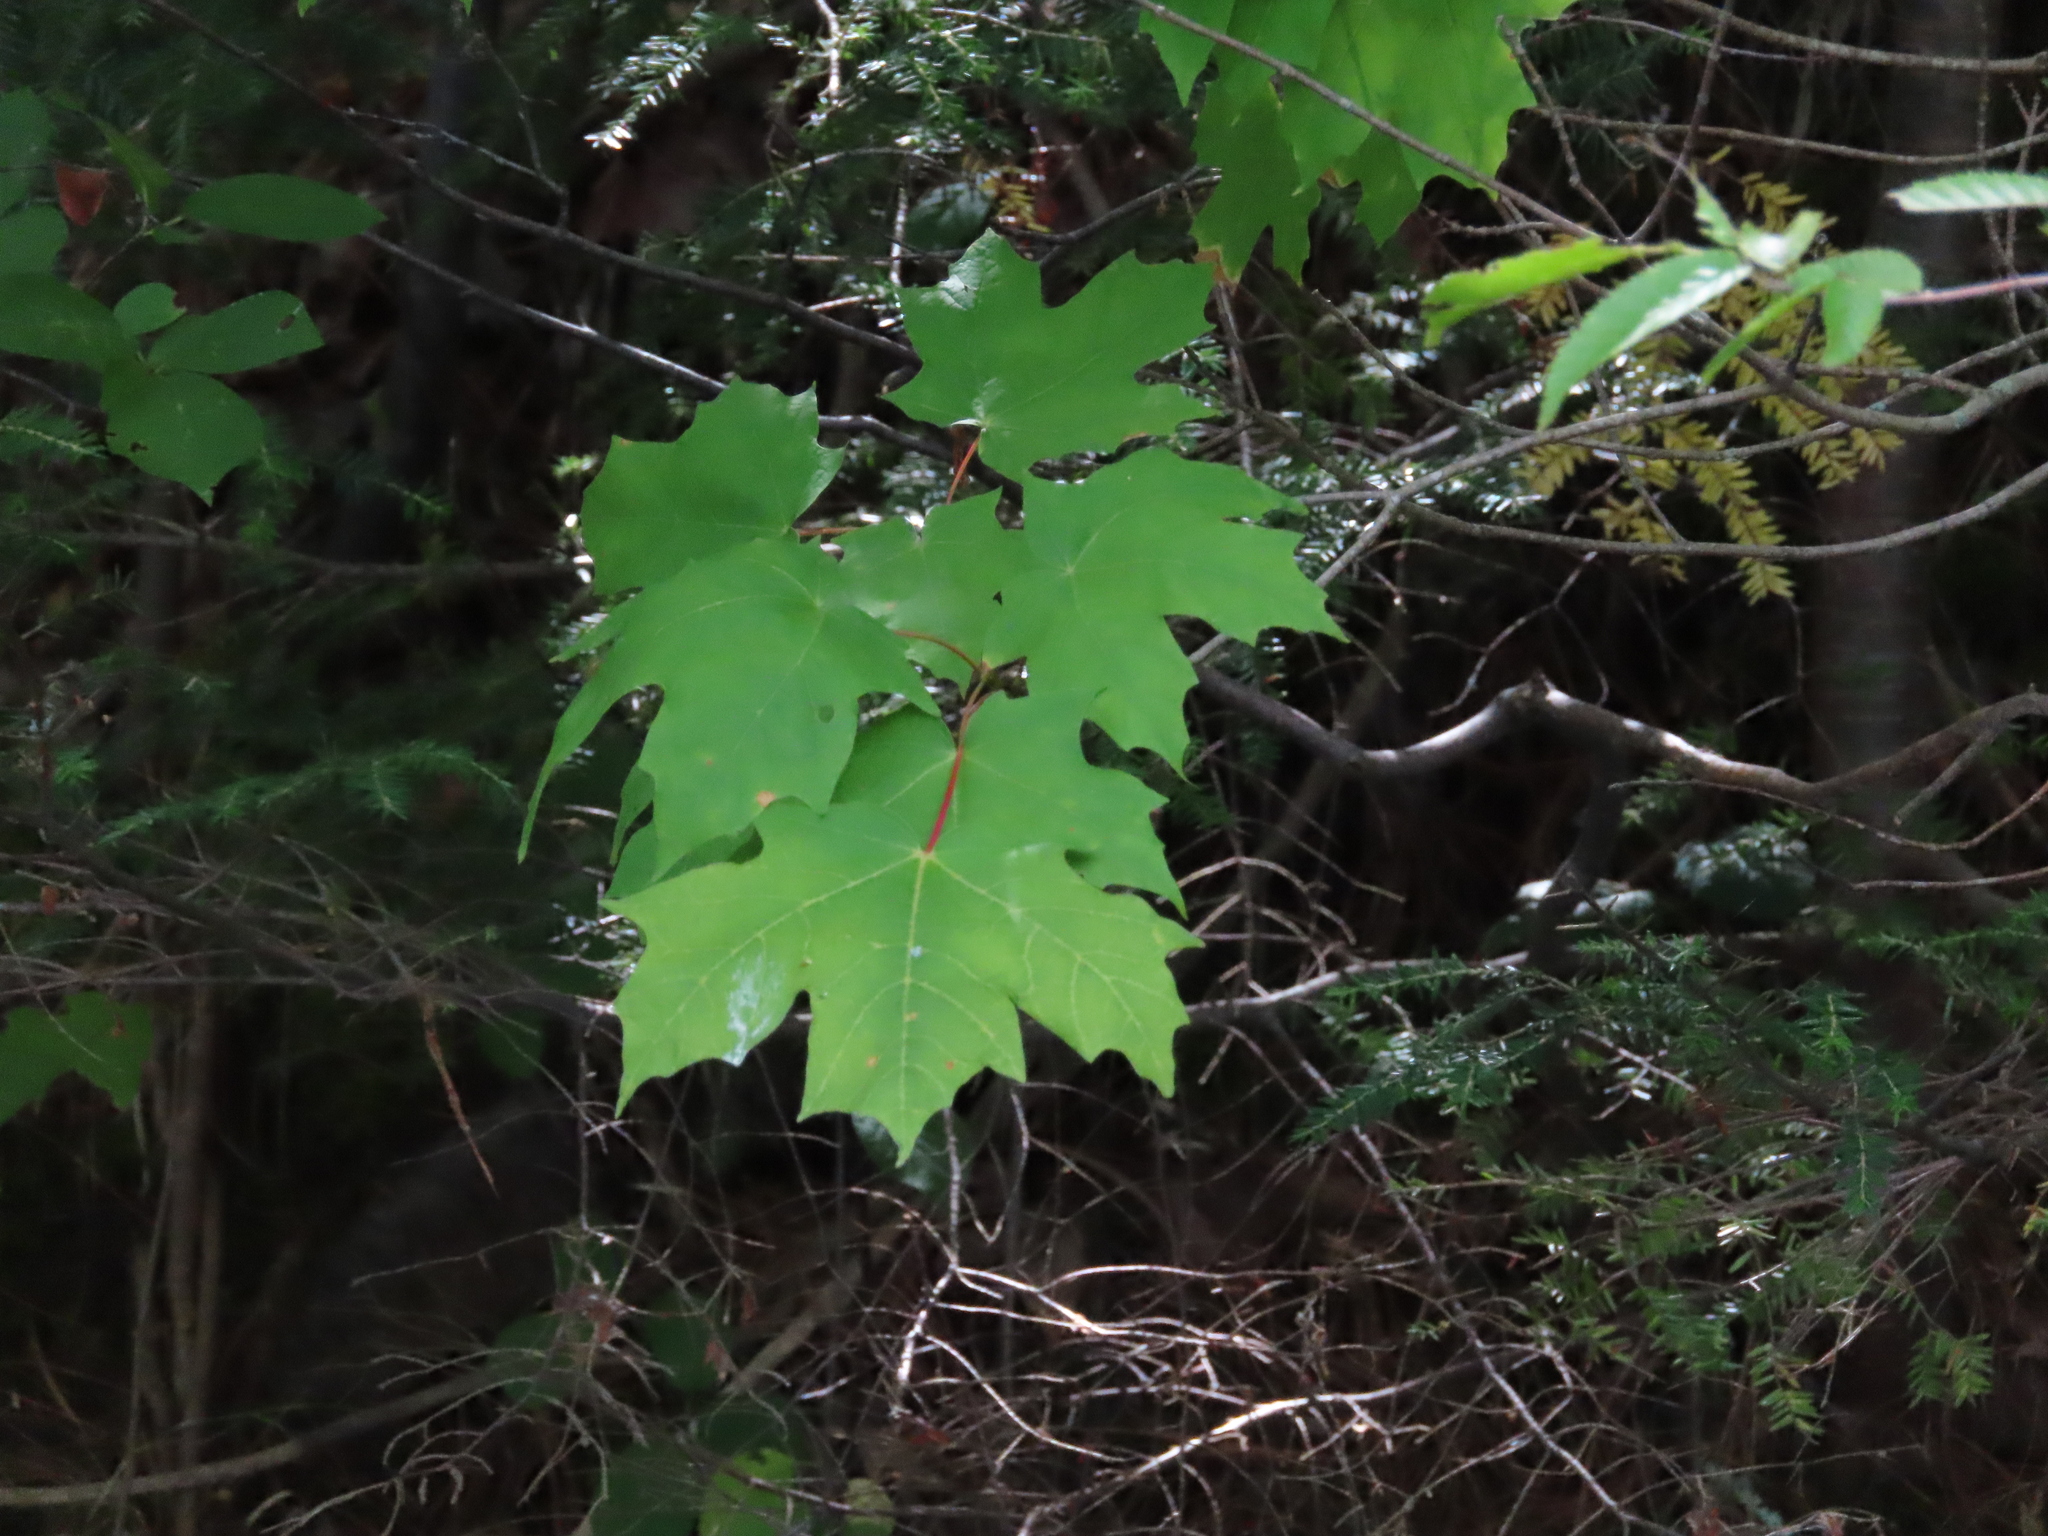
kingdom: Plantae
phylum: Tracheophyta
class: Magnoliopsida
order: Sapindales
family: Sapindaceae
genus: Acer
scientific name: Acer saccharum
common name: Sugar maple
